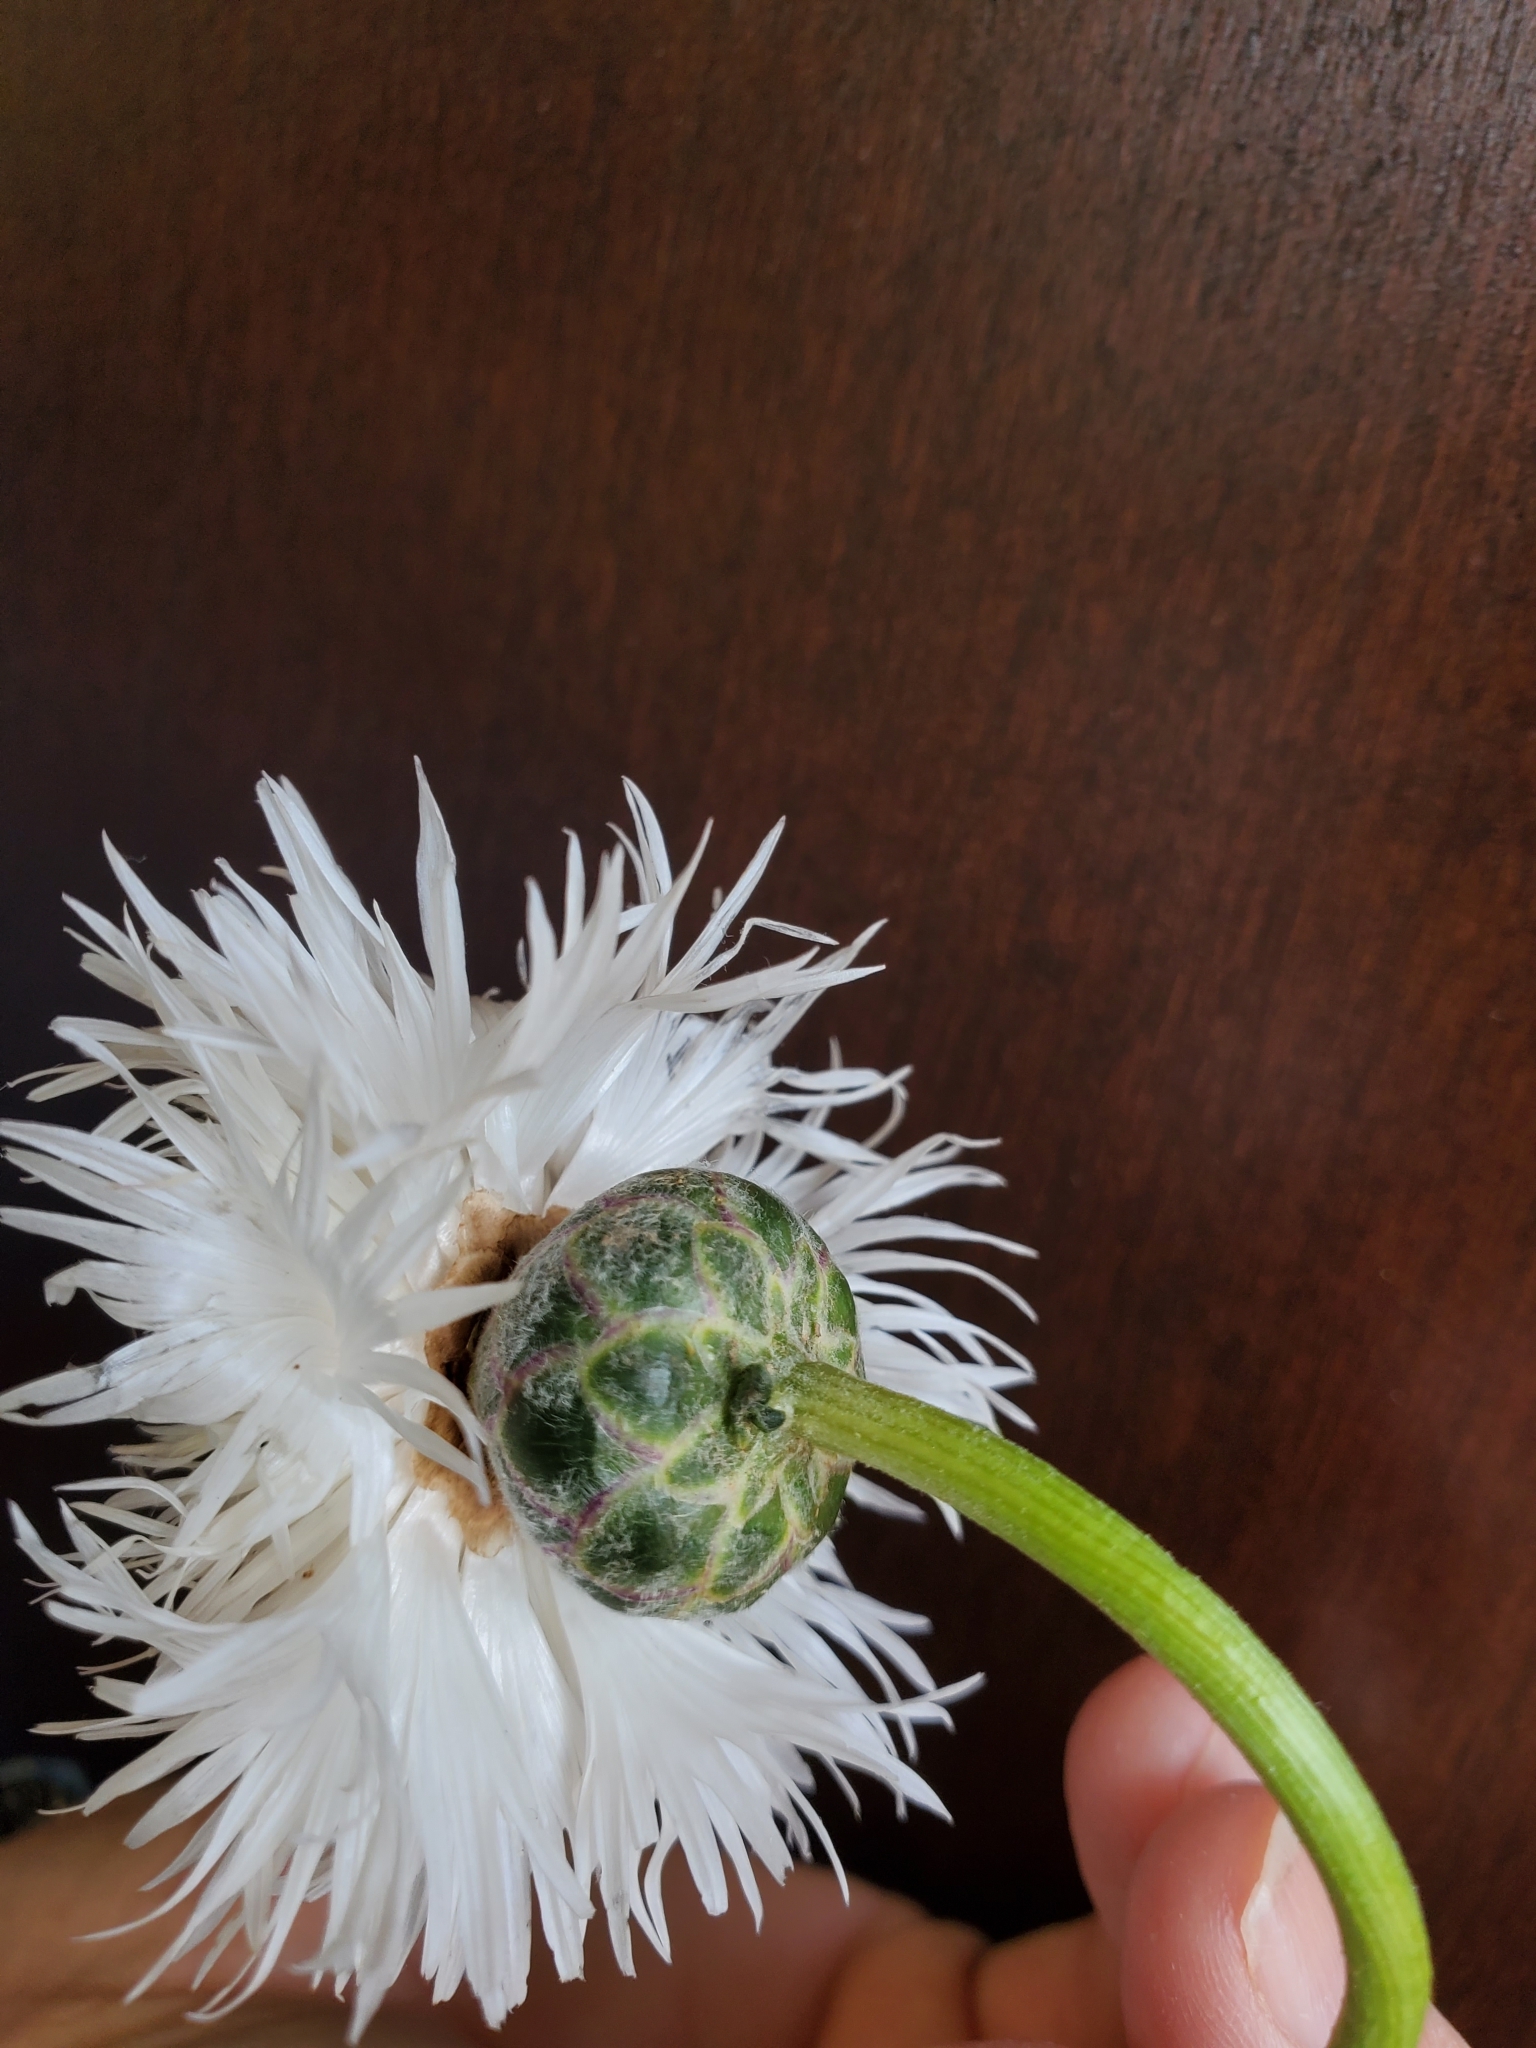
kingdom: Plantae
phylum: Tracheophyta
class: Magnoliopsida
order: Asterales
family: Asteraceae
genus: Cirsium
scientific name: Cirsium neomexicanum
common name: New mexico thistle
